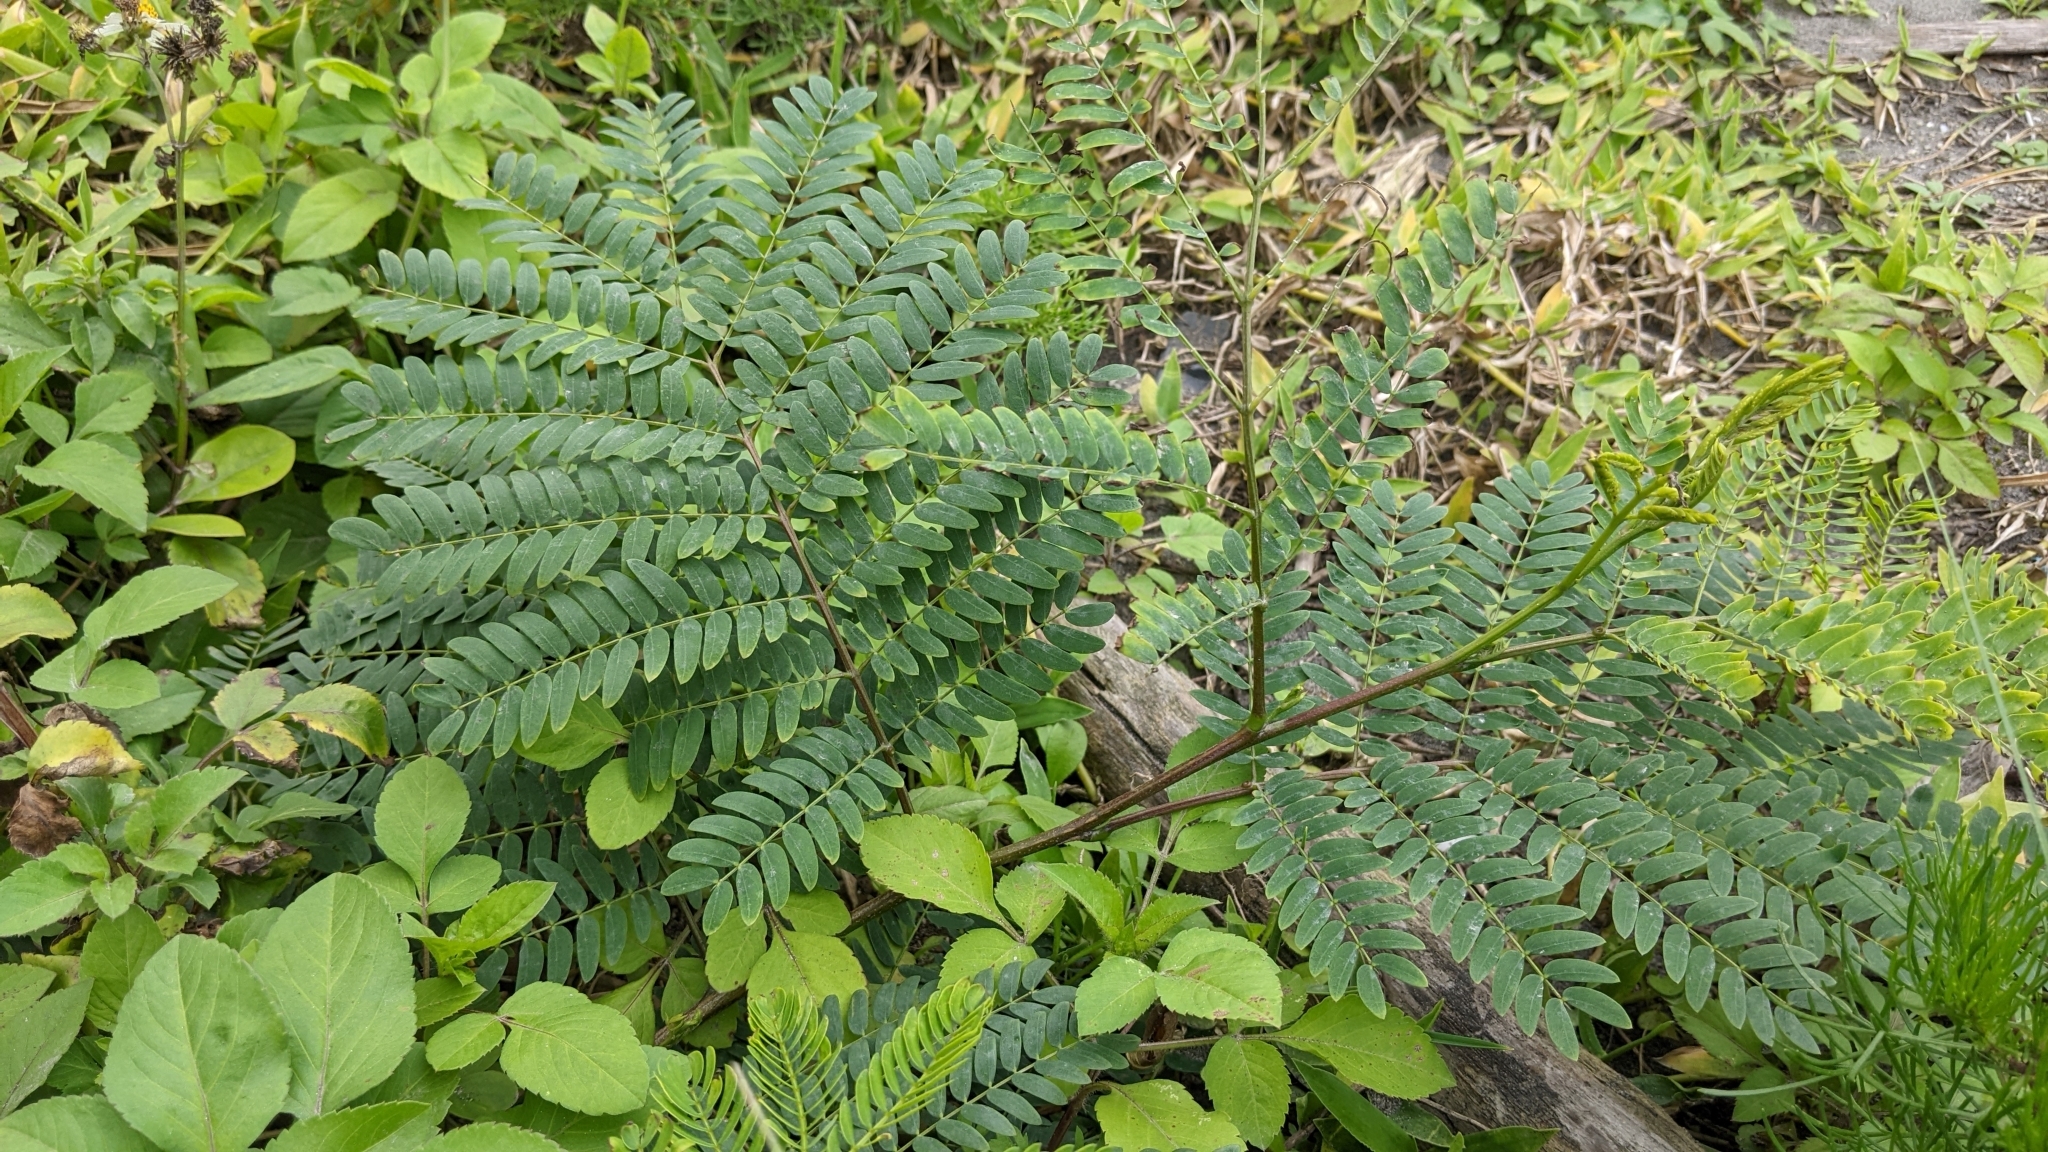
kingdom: Plantae
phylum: Tracheophyta
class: Magnoliopsida
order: Fabales
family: Fabaceae
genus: Leucaena
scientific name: Leucaena leucocephala
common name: White leadtree
